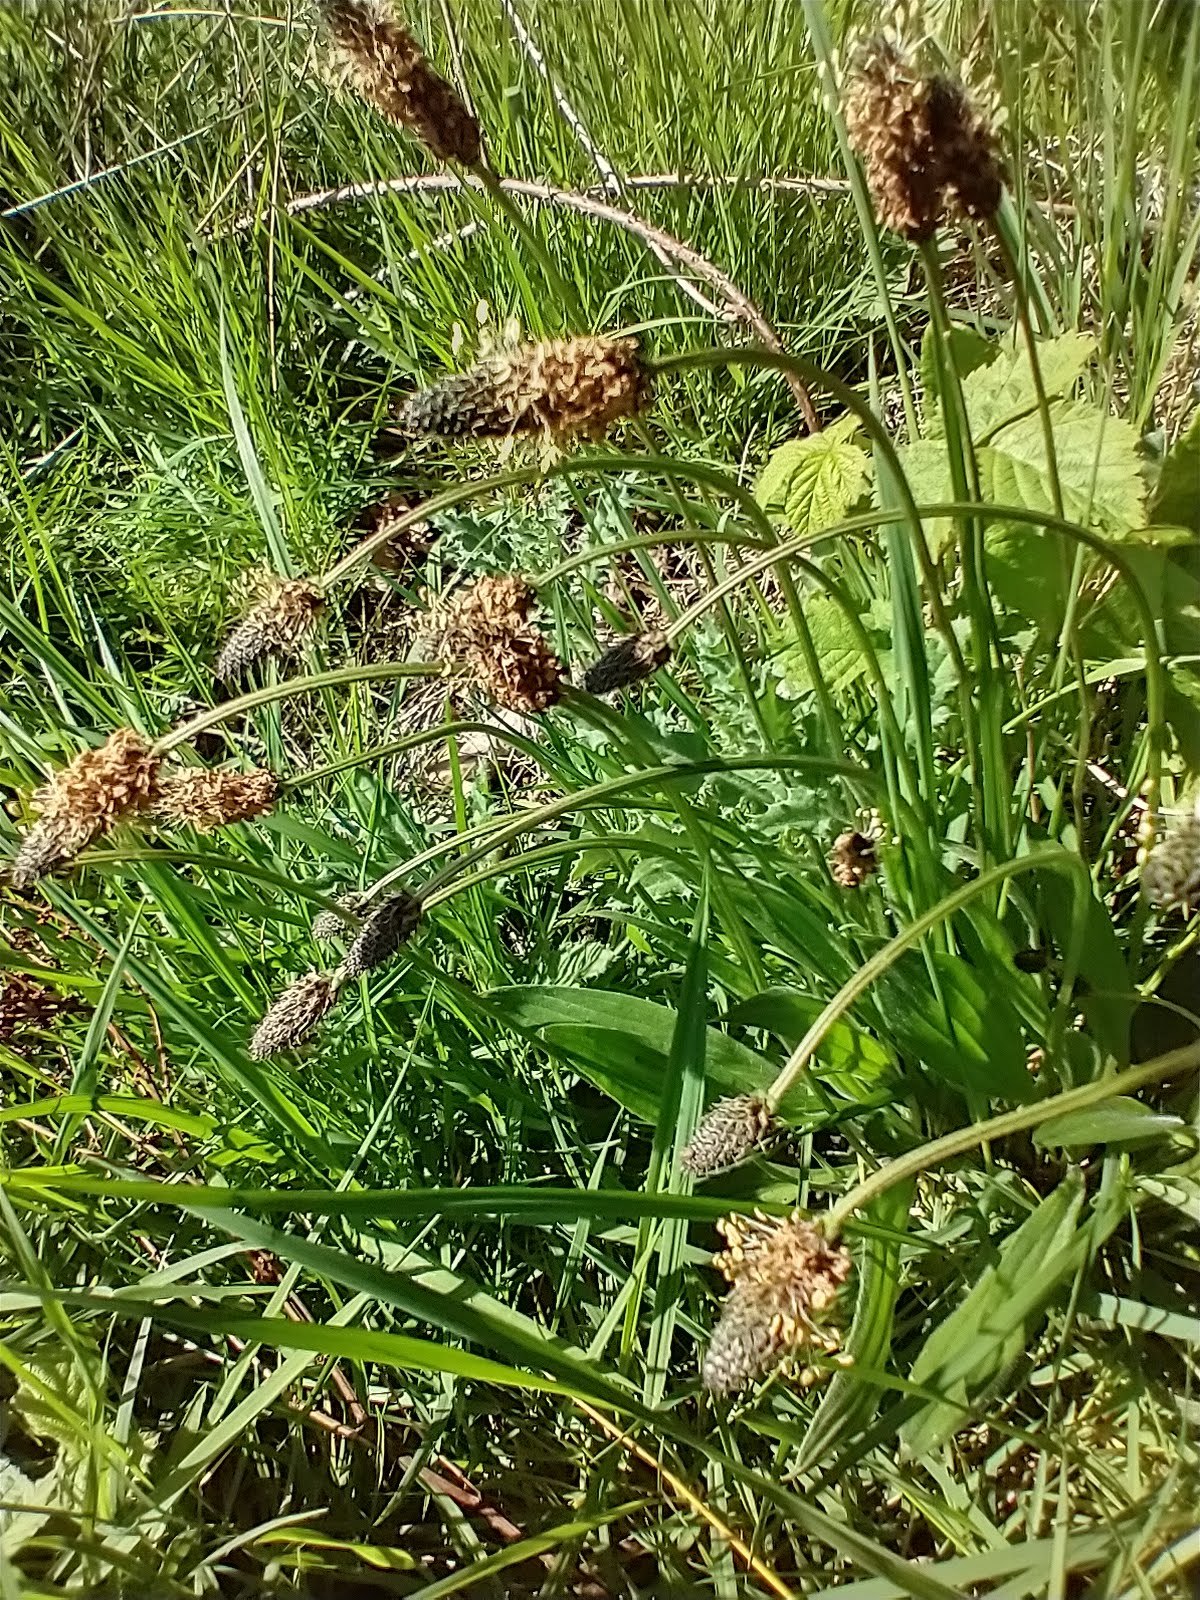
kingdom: Plantae
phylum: Tracheophyta
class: Magnoliopsida
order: Lamiales
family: Plantaginaceae
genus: Plantago
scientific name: Plantago lanceolata
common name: Ribwort plantain
